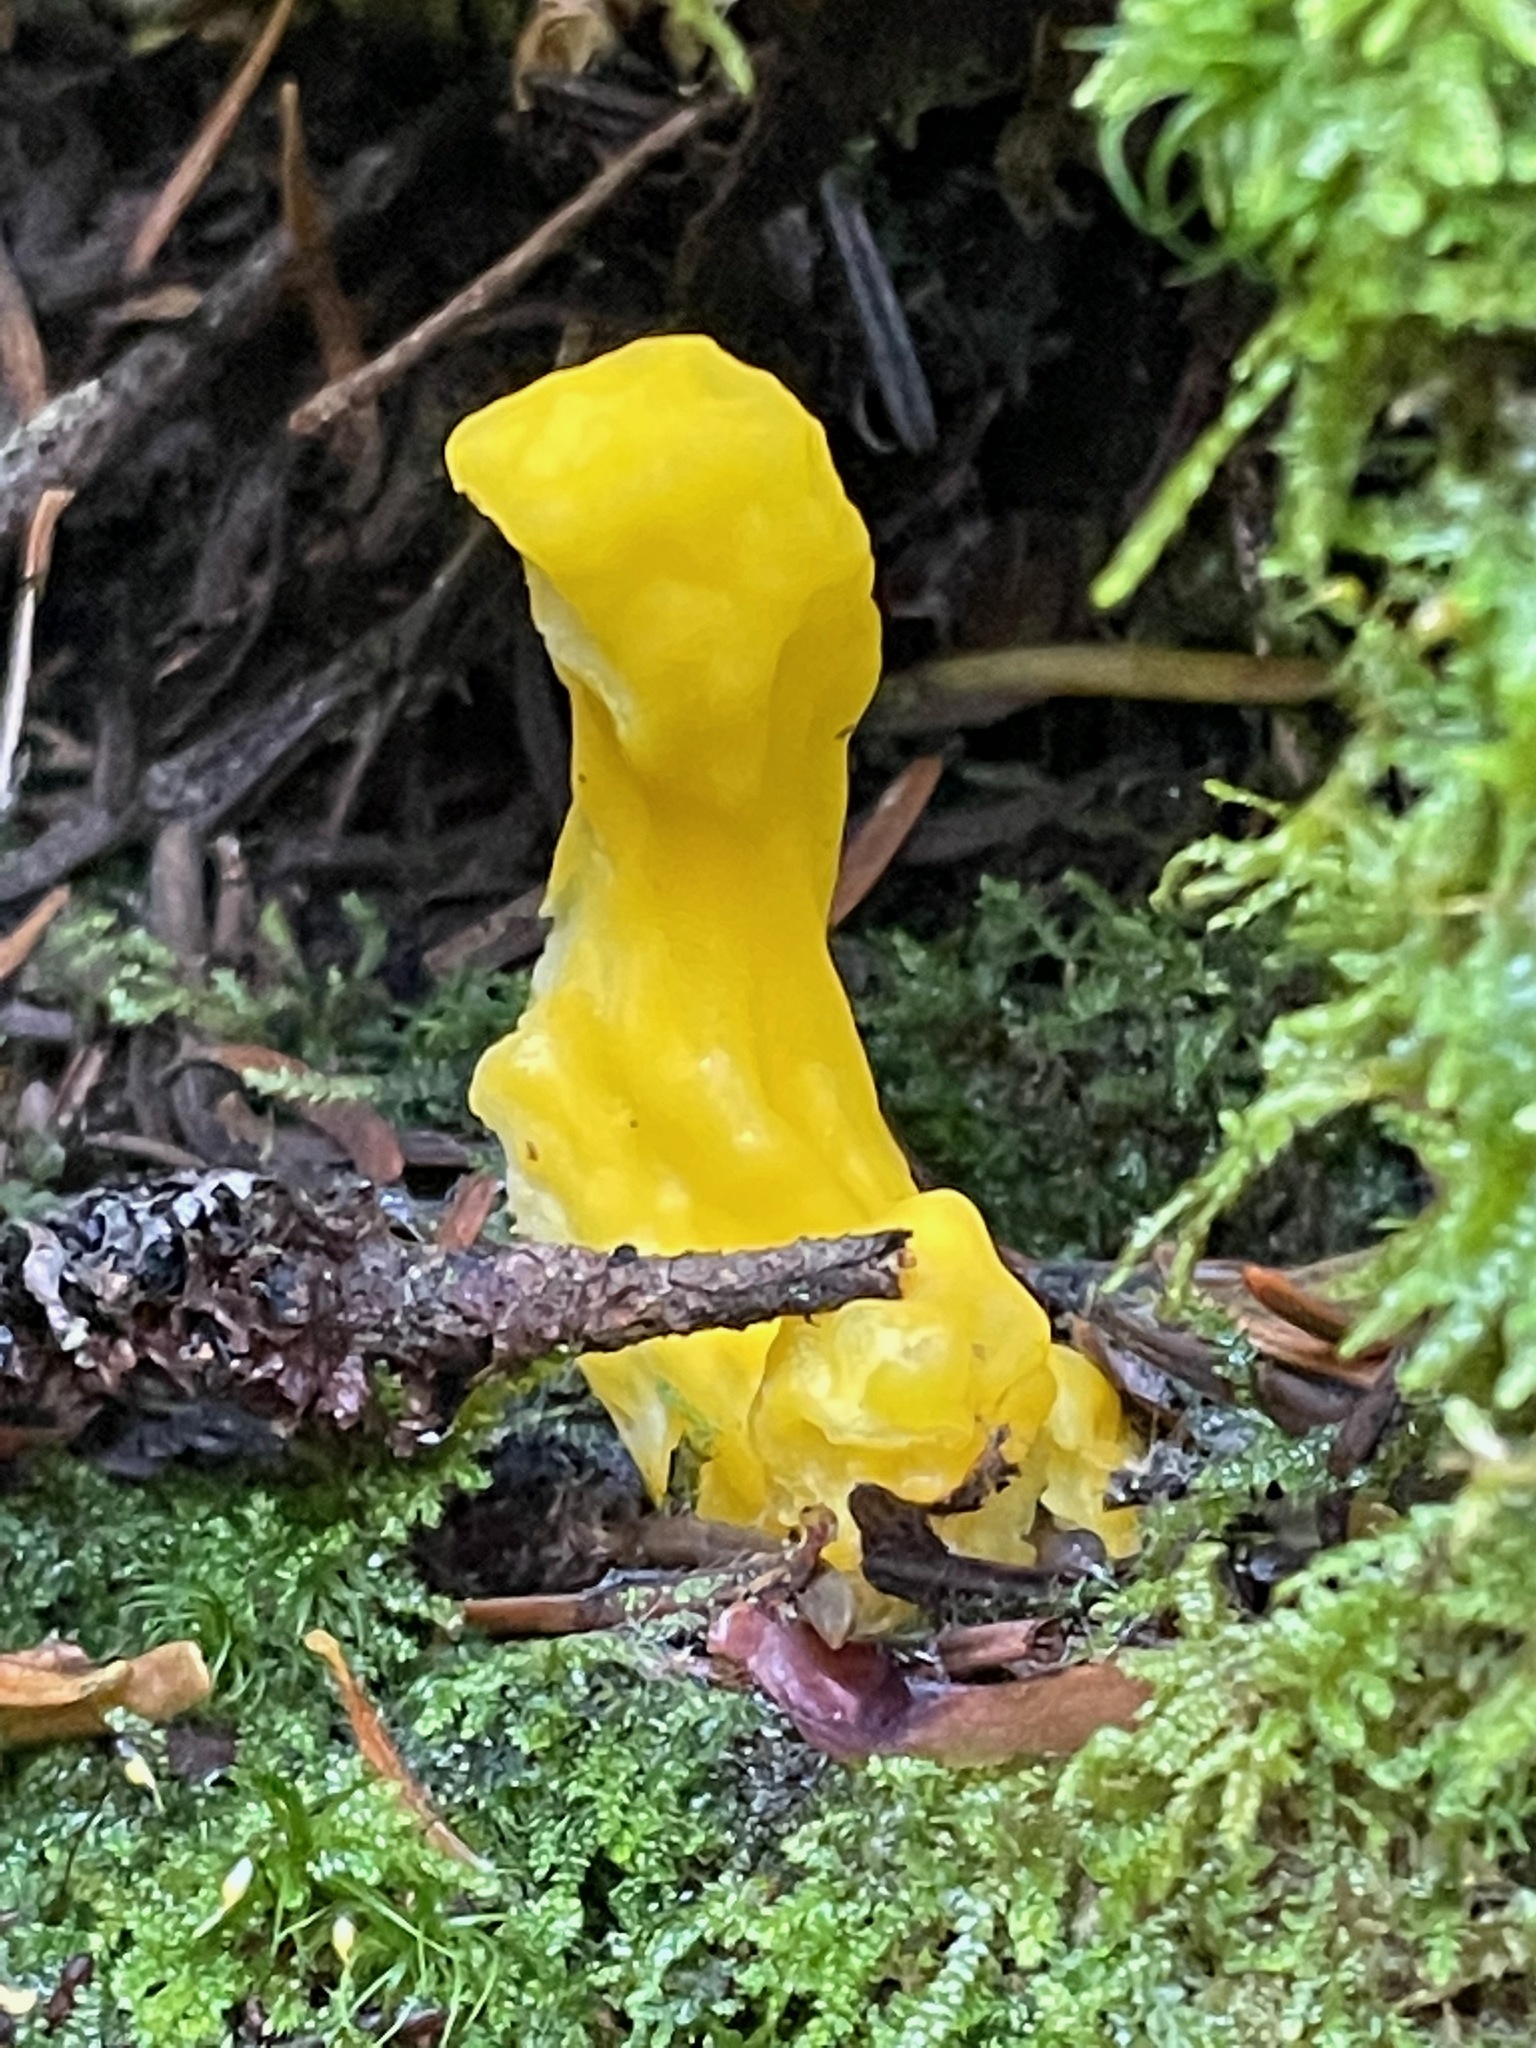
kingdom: Fungi
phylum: Ascomycota
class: Neolectomycetes
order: Neolectales
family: Neolectaceae
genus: Neolecta
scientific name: Neolecta irregularis
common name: Irregular earth tongue
